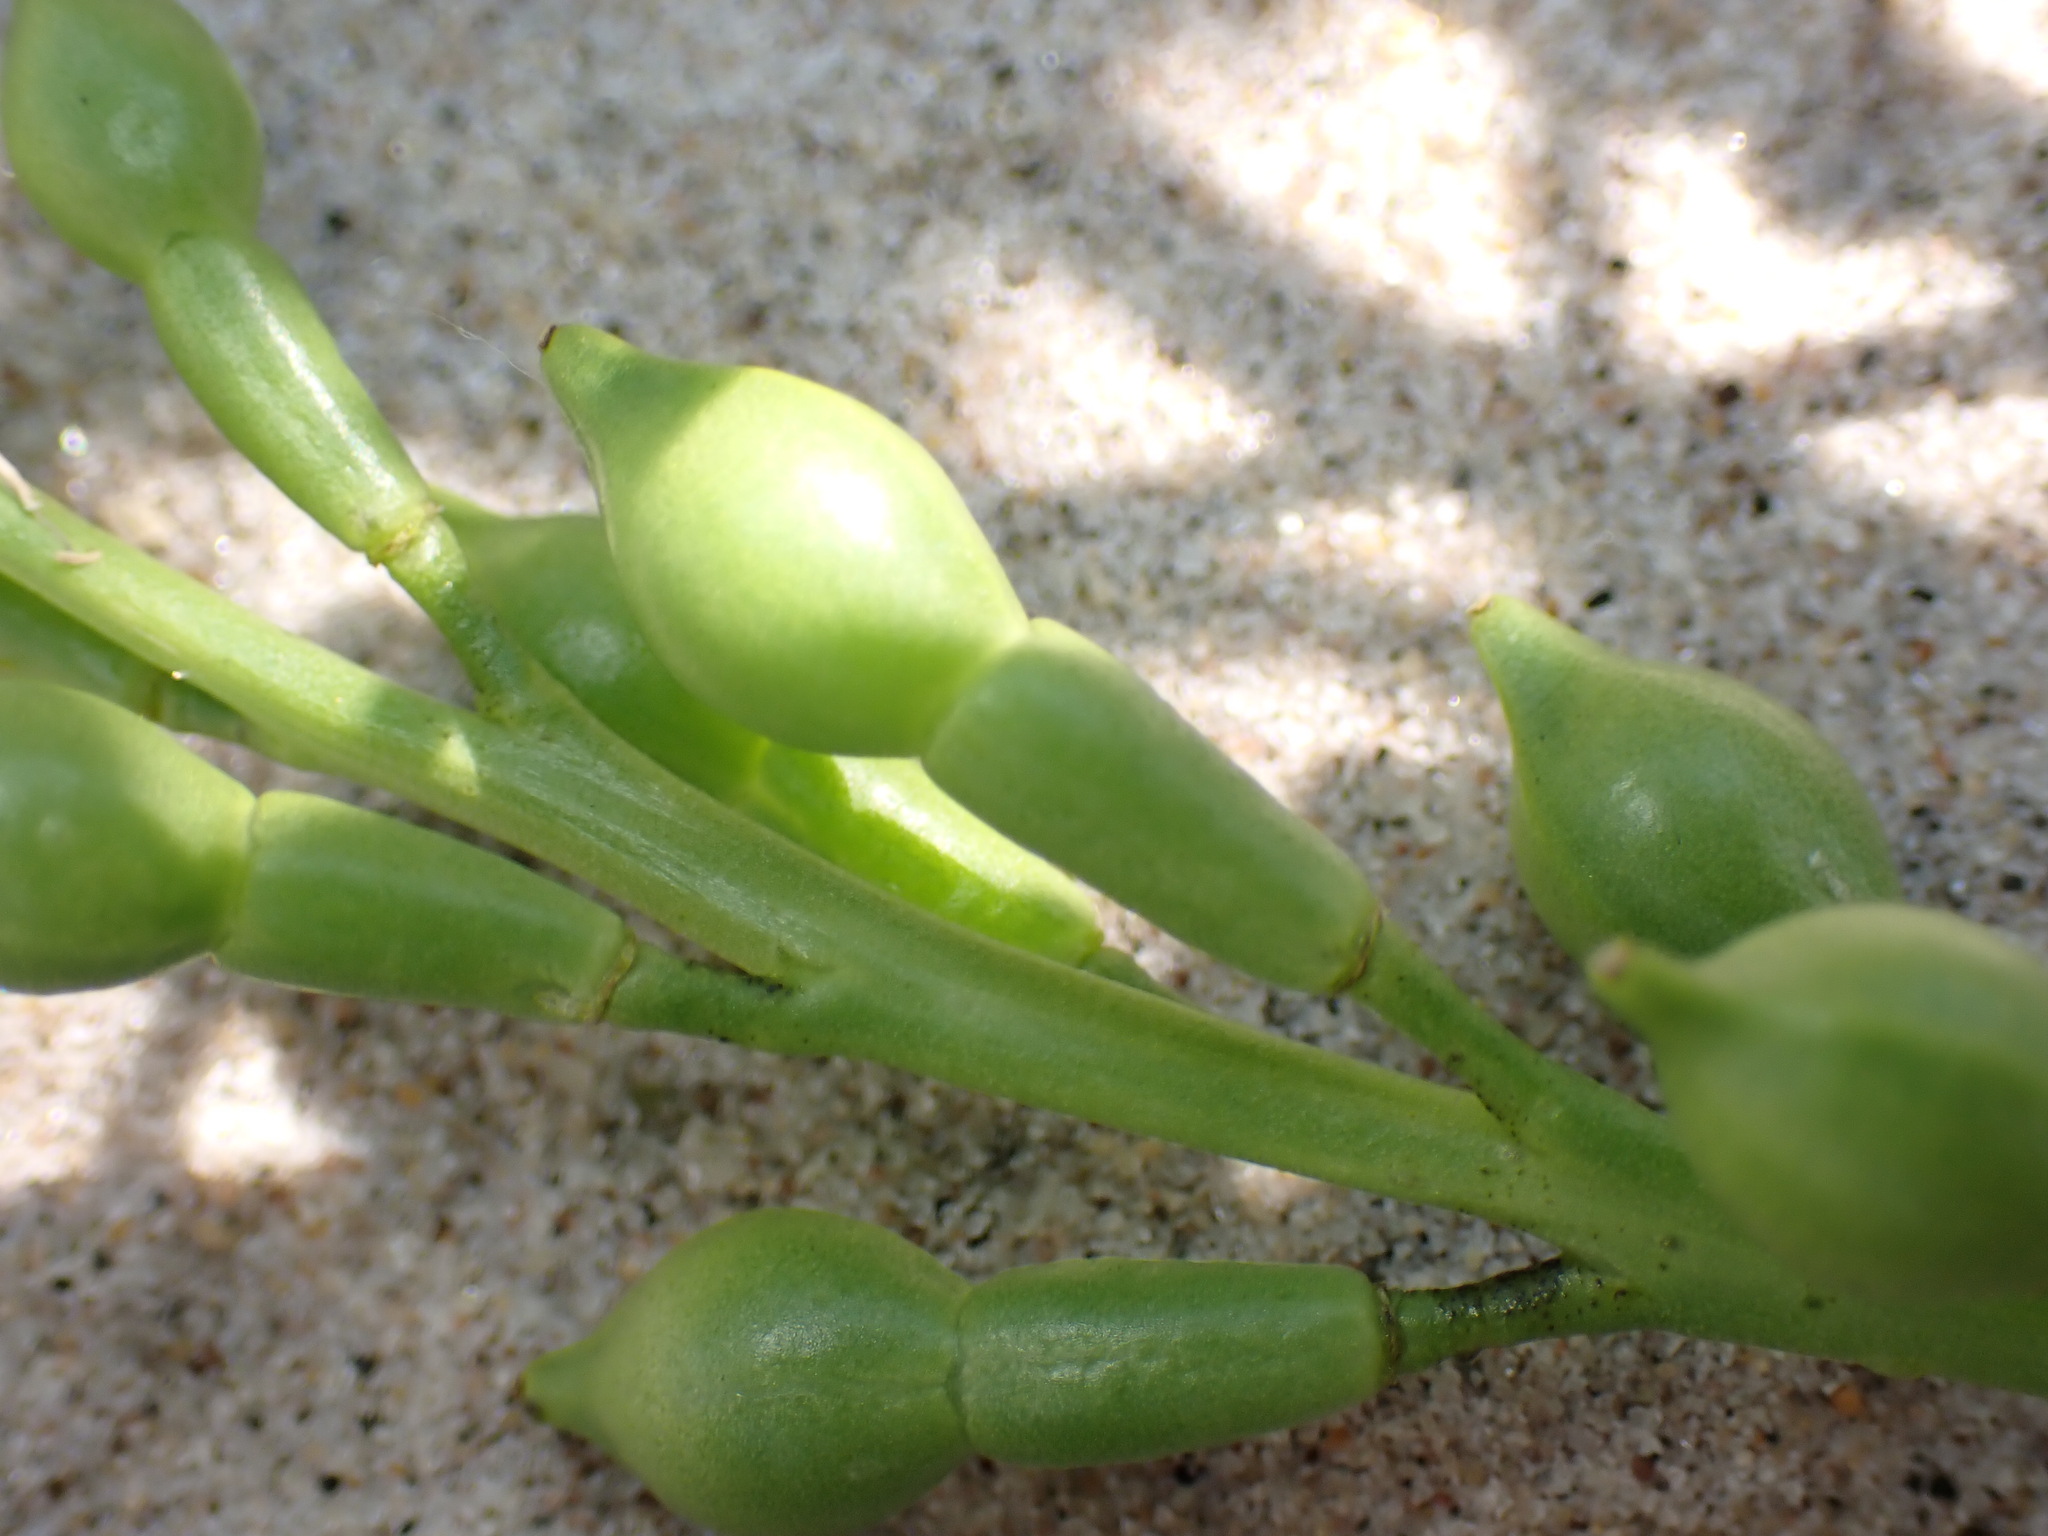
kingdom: Plantae
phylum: Tracheophyta
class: Magnoliopsida
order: Brassicales
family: Brassicaceae
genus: Cakile
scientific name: Cakile edentula
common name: American sea rocket
